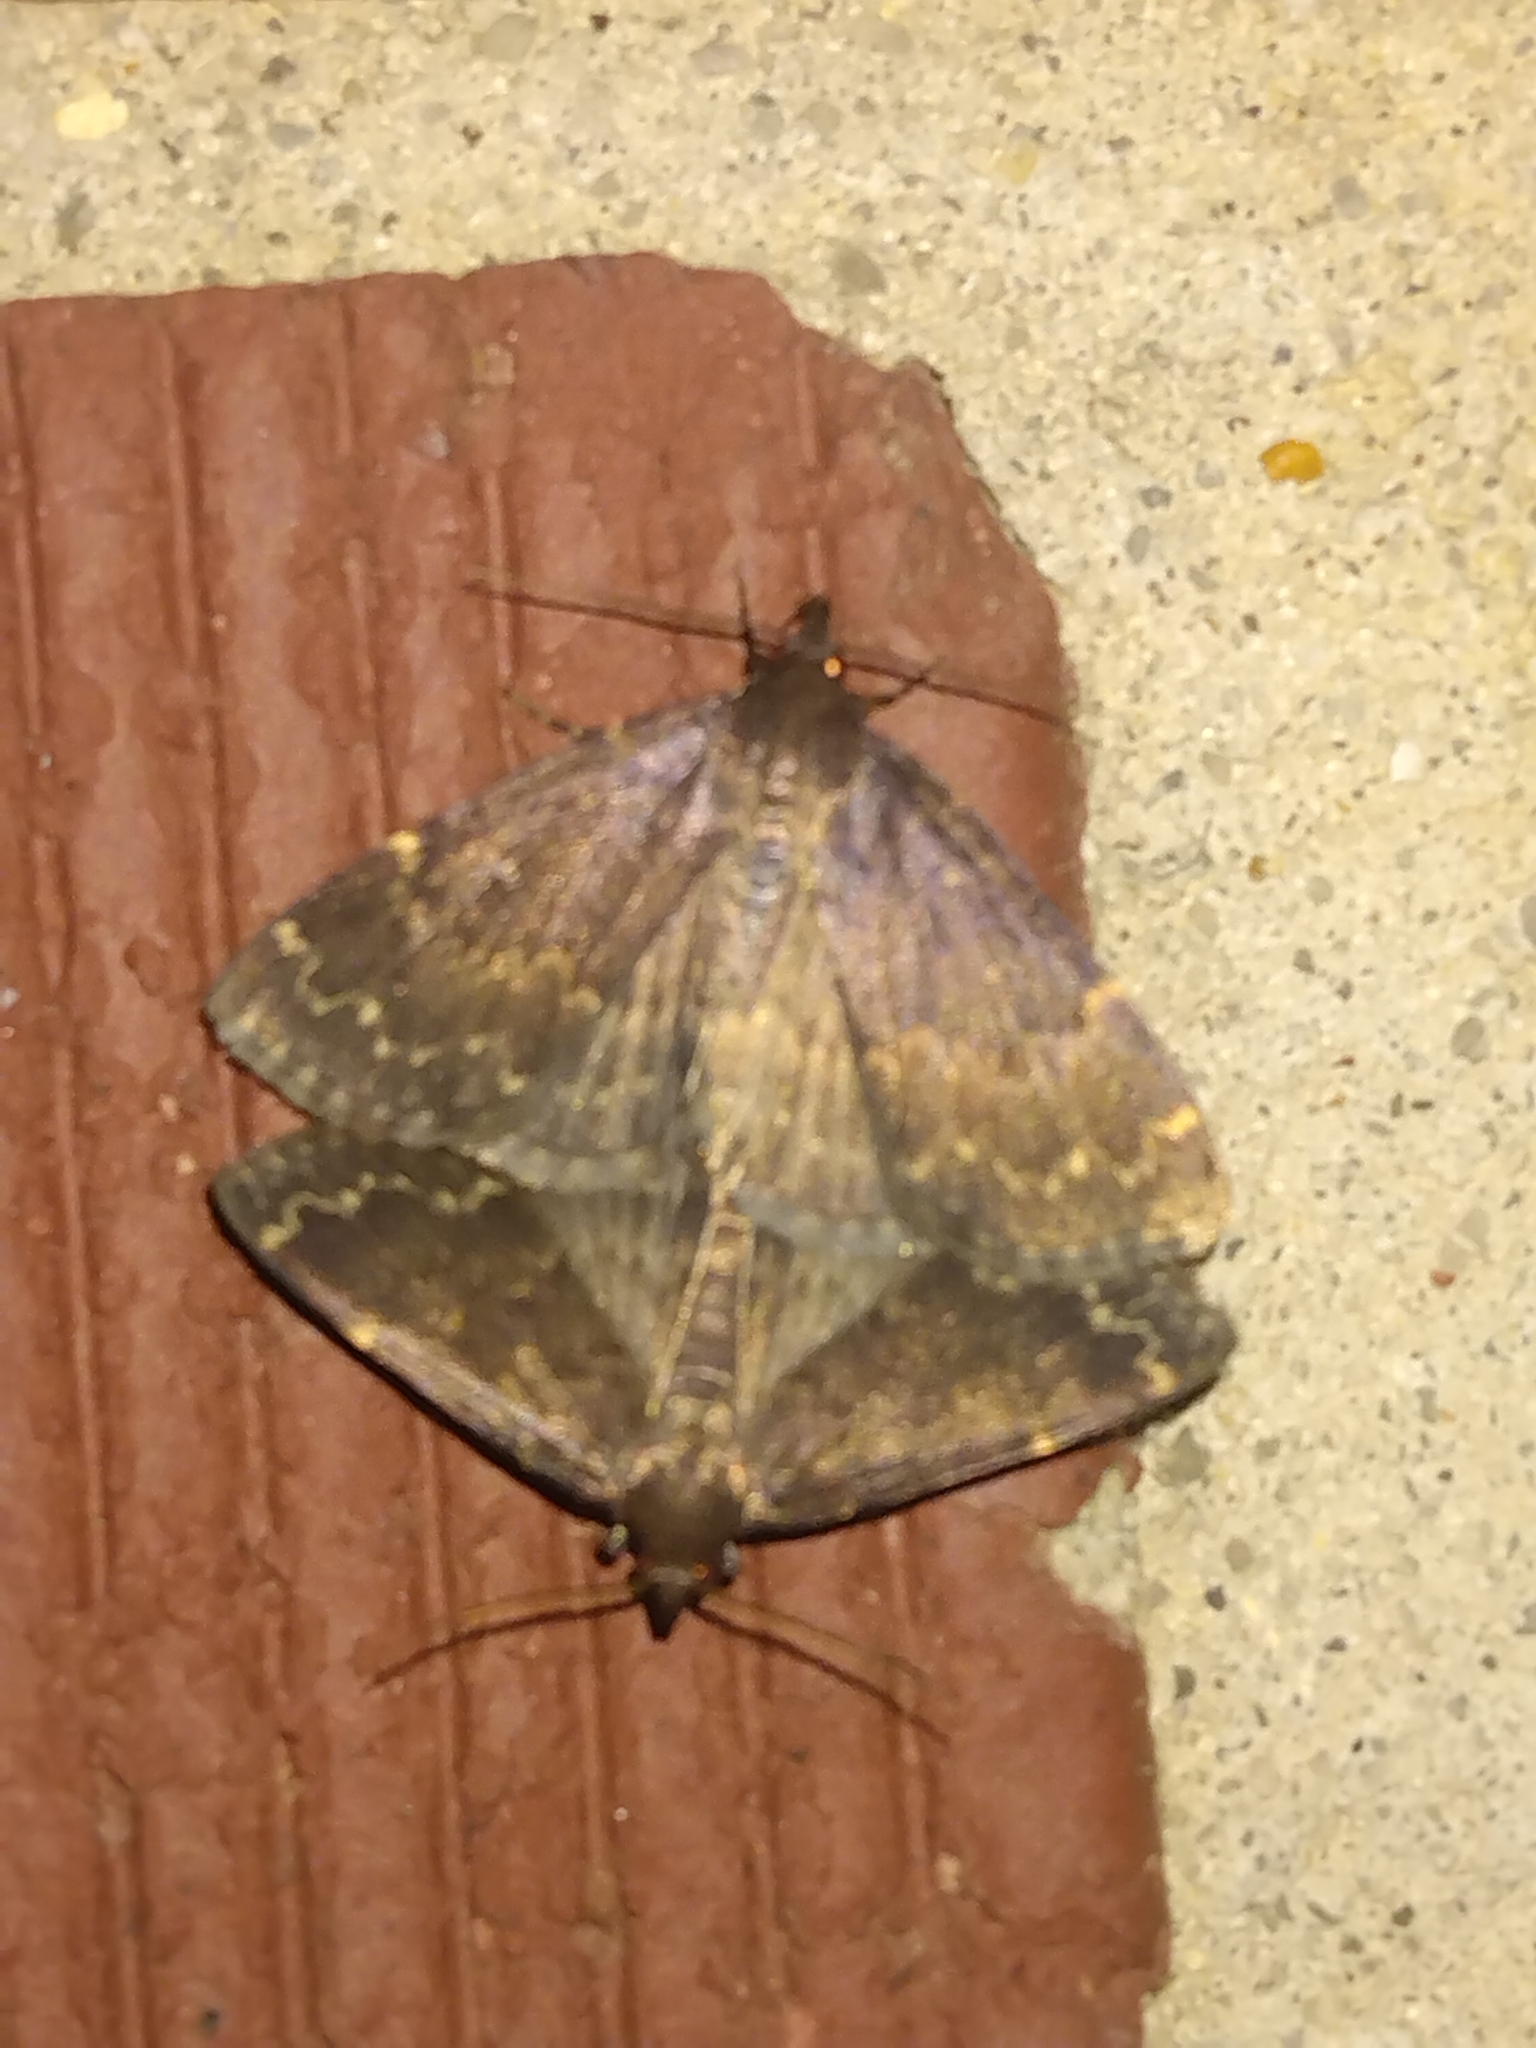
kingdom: Animalia
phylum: Arthropoda
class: Insecta
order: Lepidoptera
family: Erebidae
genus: Idia
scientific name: Idia lubricalis
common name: Twin-striped tabby
